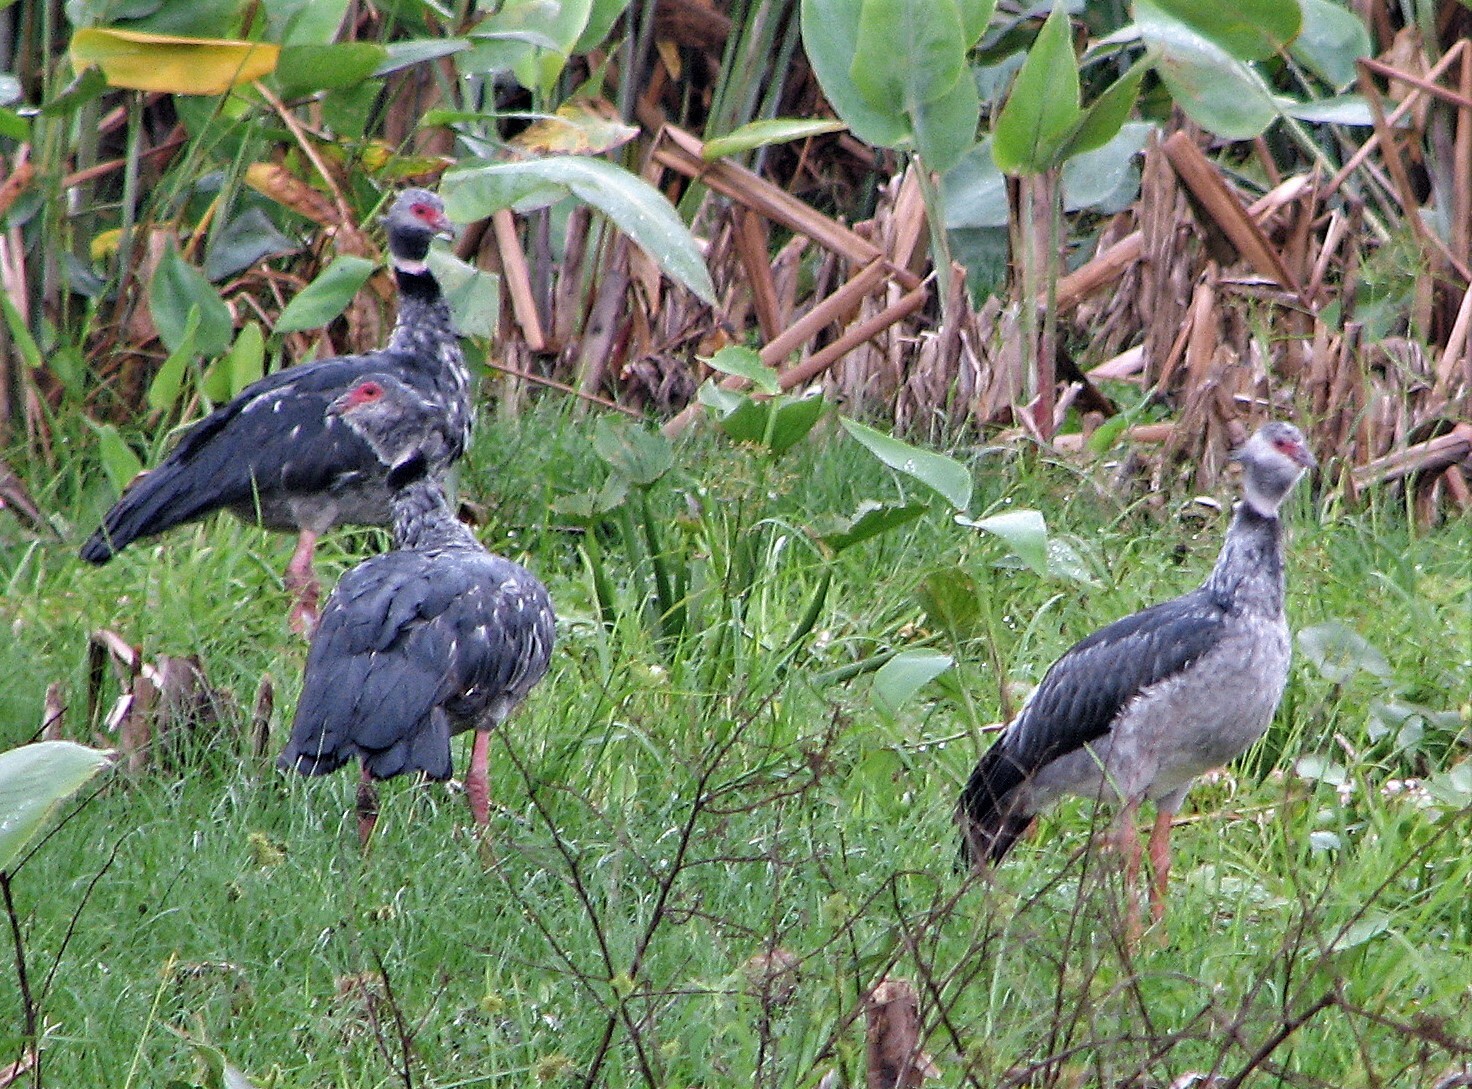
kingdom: Animalia
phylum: Chordata
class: Aves
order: Anseriformes
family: Anhimidae
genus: Chauna
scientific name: Chauna torquata
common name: Southern screamer
